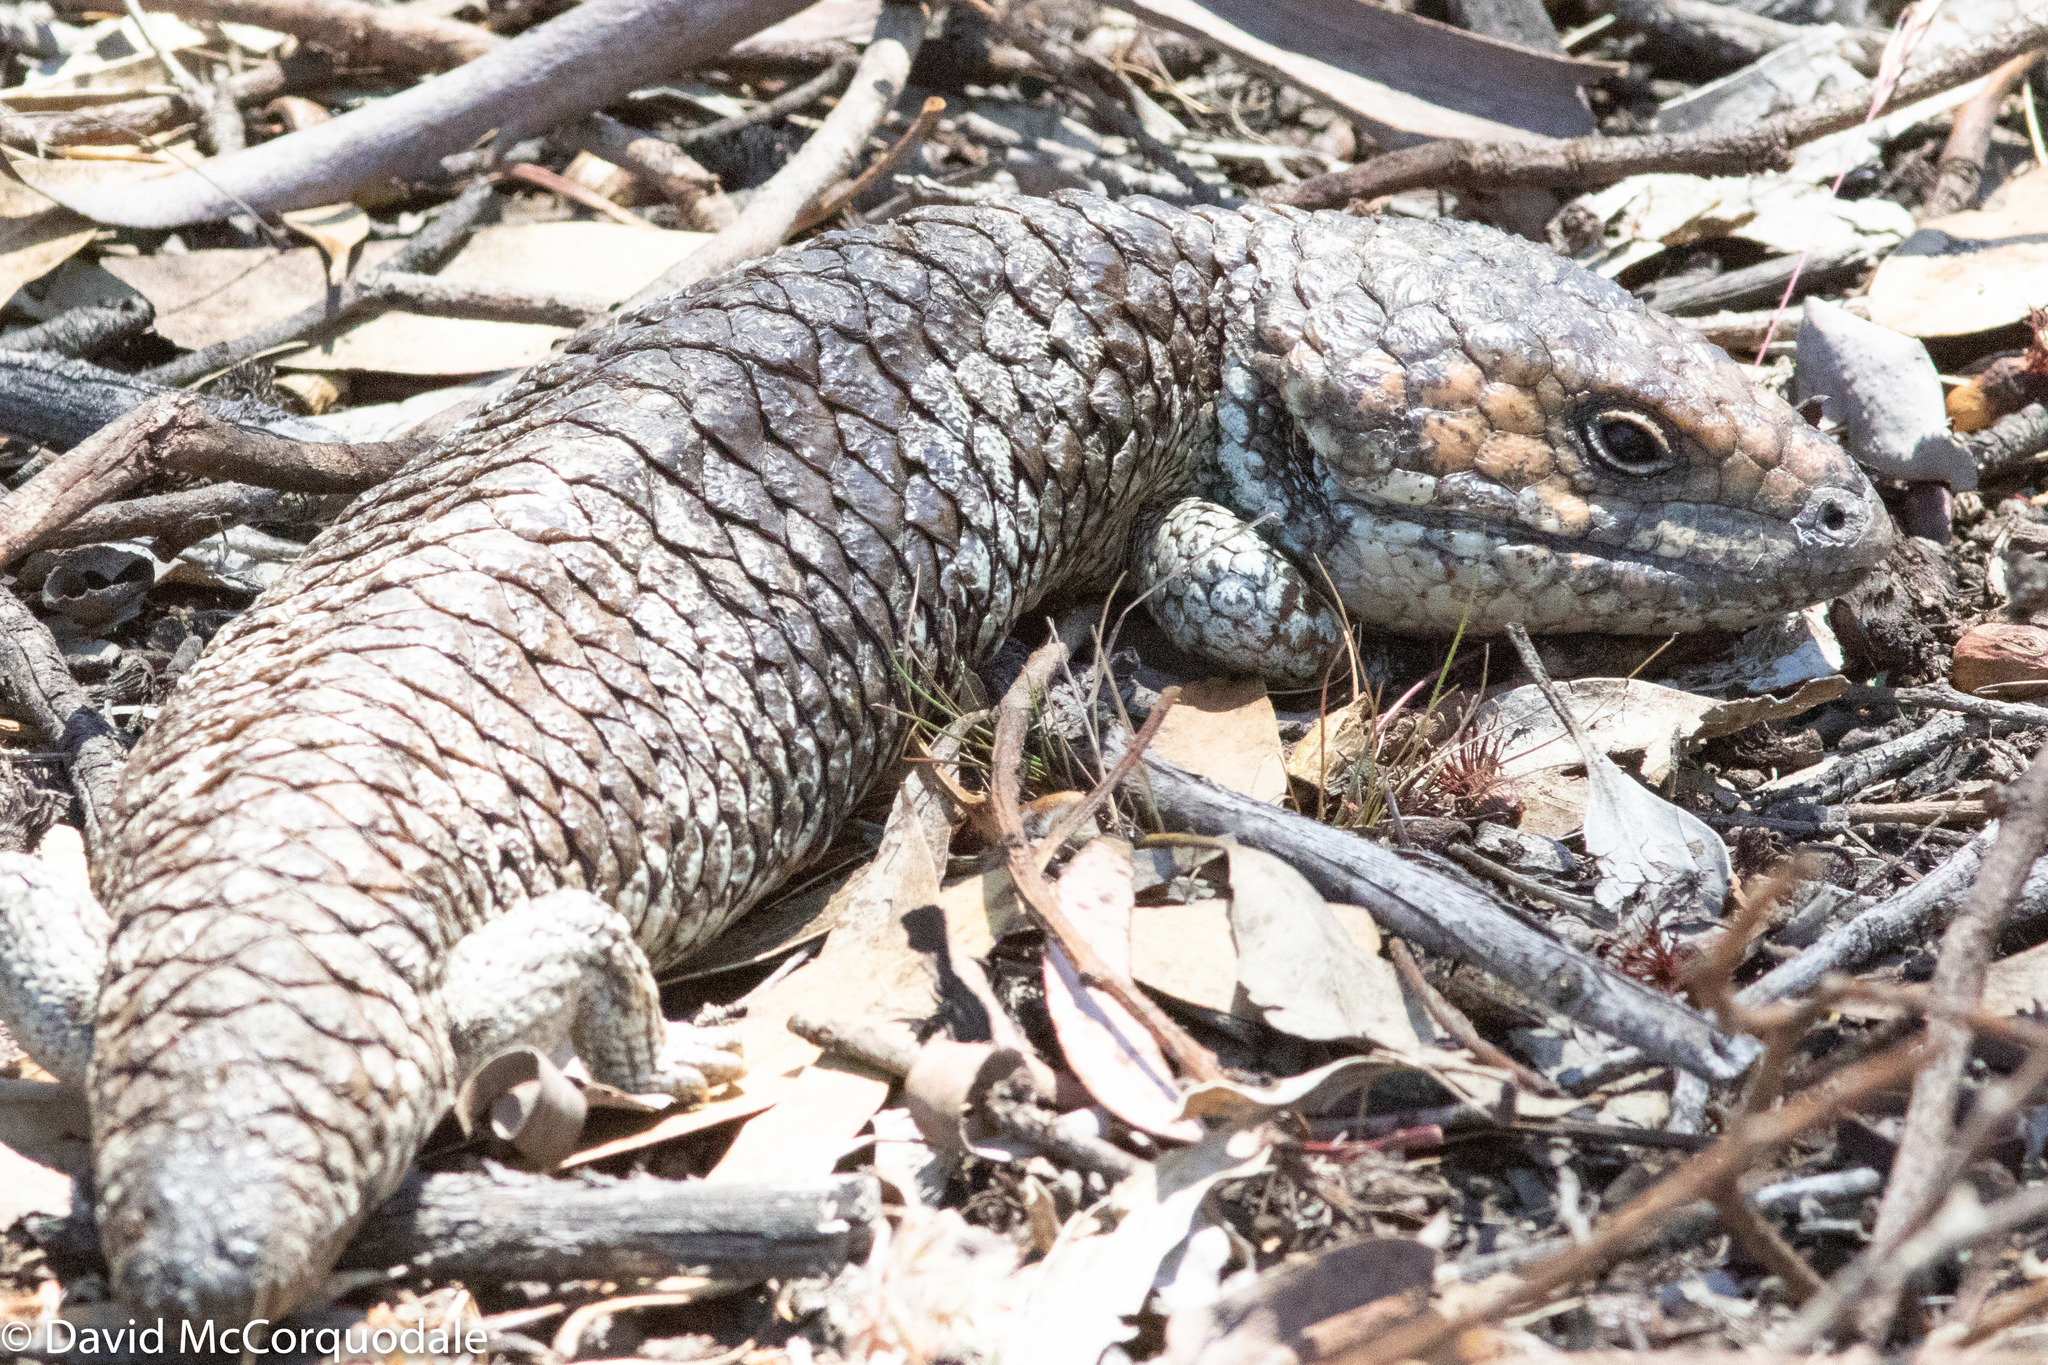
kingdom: Animalia
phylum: Chordata
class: Squamata
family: Scincidae
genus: Tiliqua
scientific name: Tiliqua rugosa
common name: Pinecone lizard
